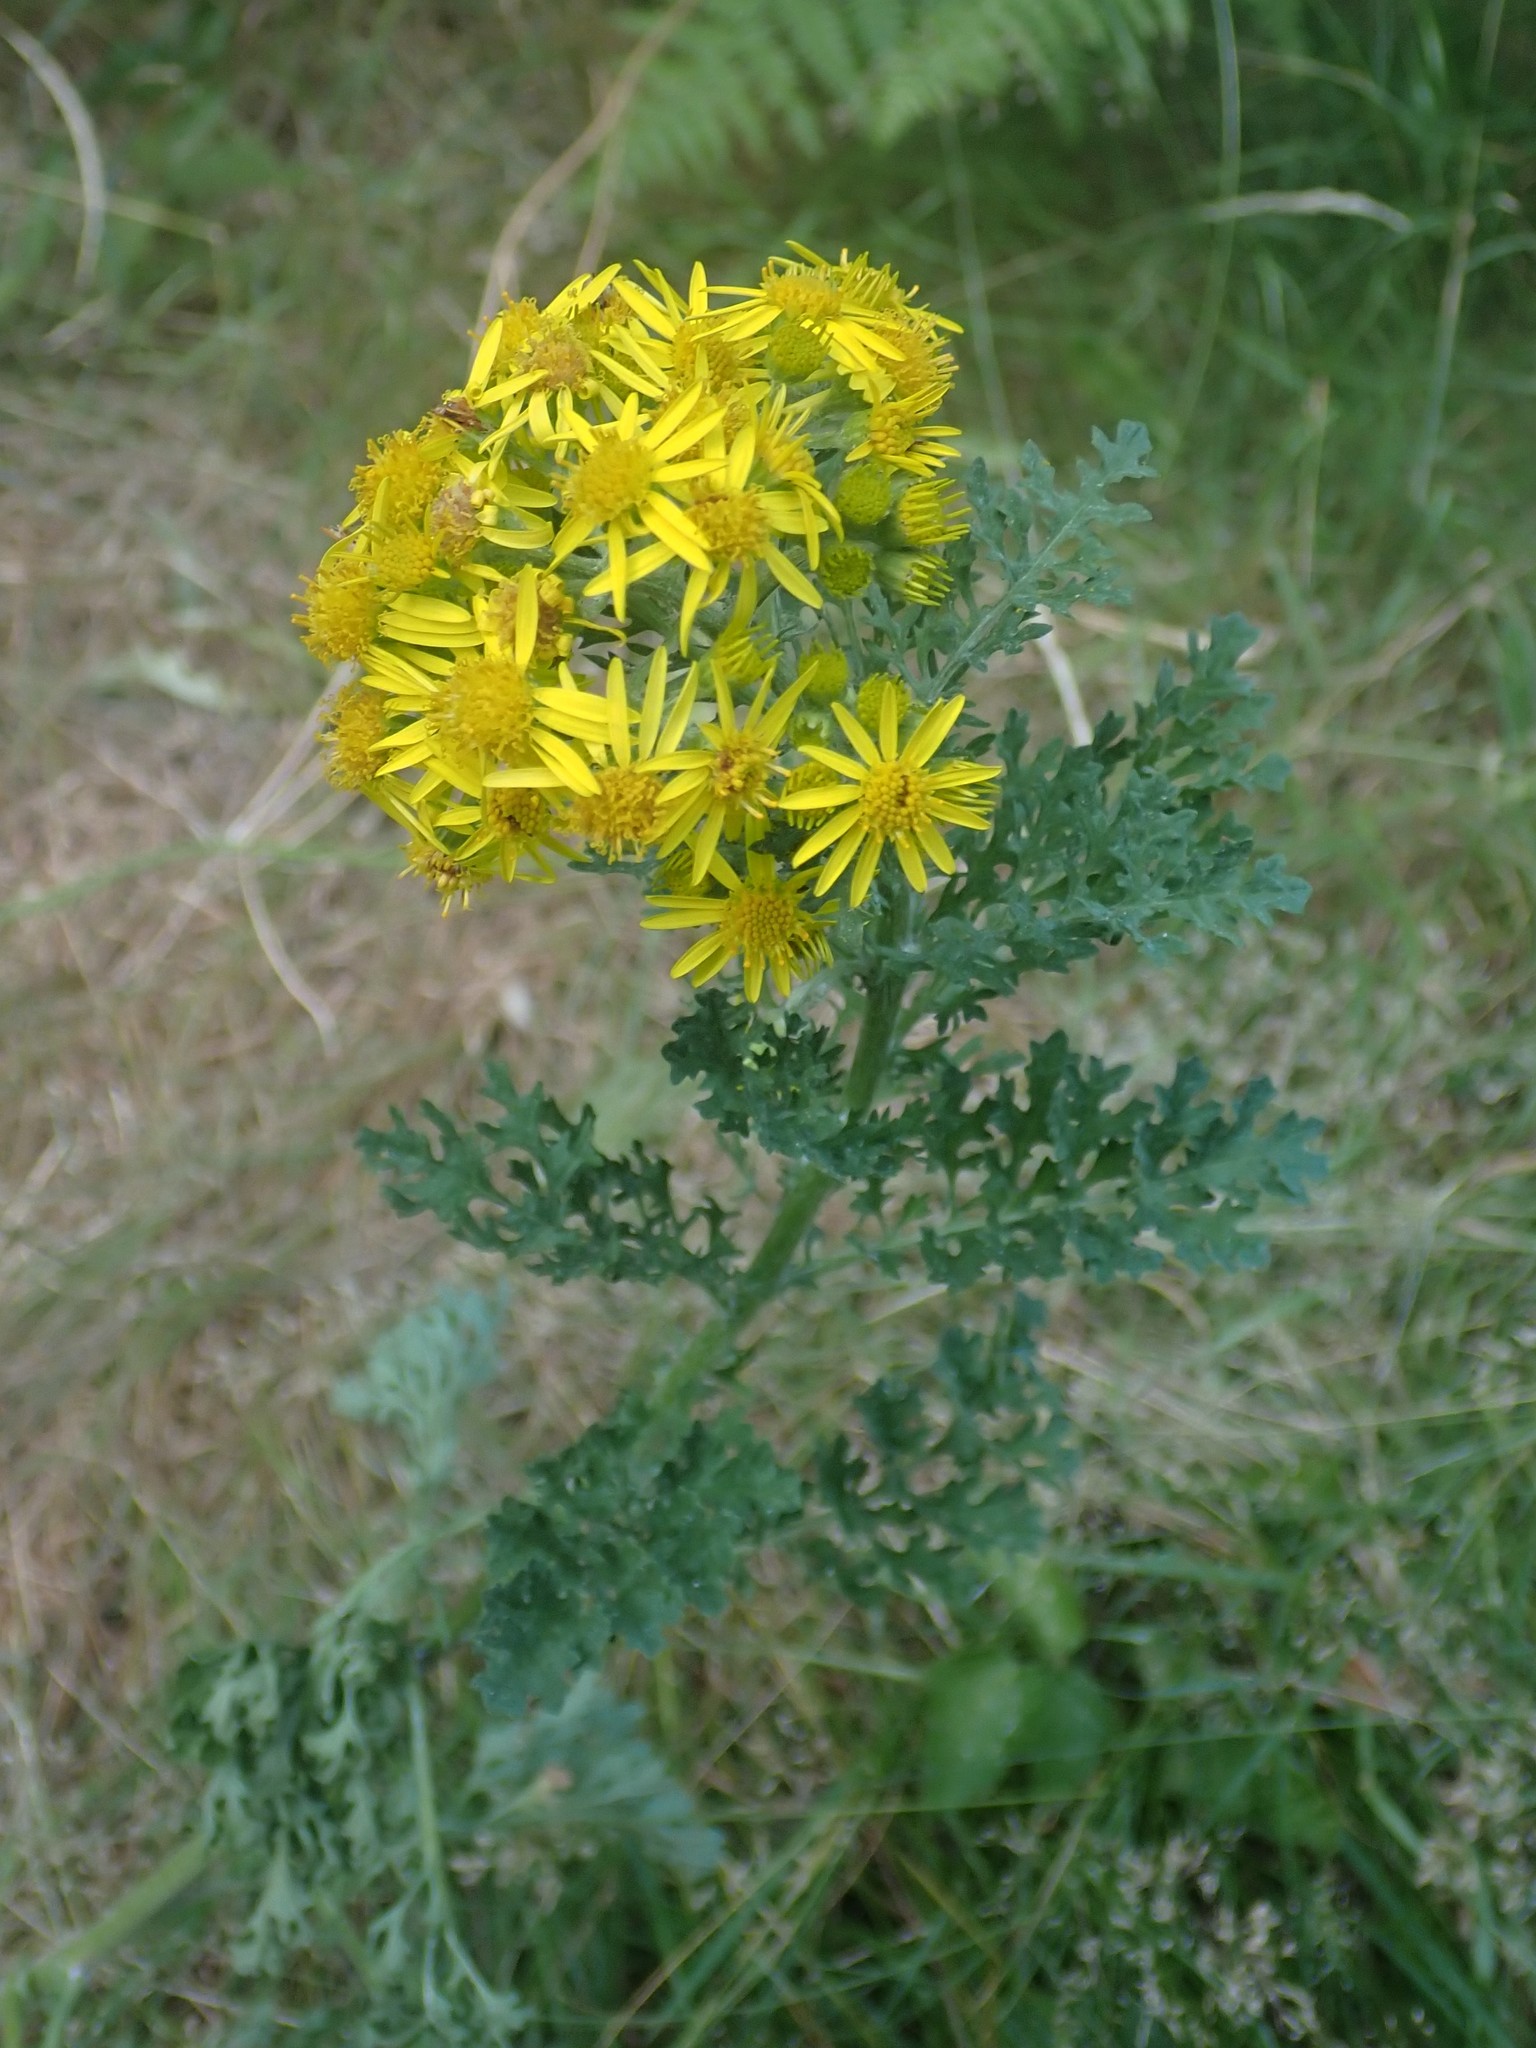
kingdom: Plantae
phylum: Tracheophyta
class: Magnoliopsida
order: Asterales
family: Asteraceae
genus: Jacobaea
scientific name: Jacobaea vulgaris
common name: Stinking willie
